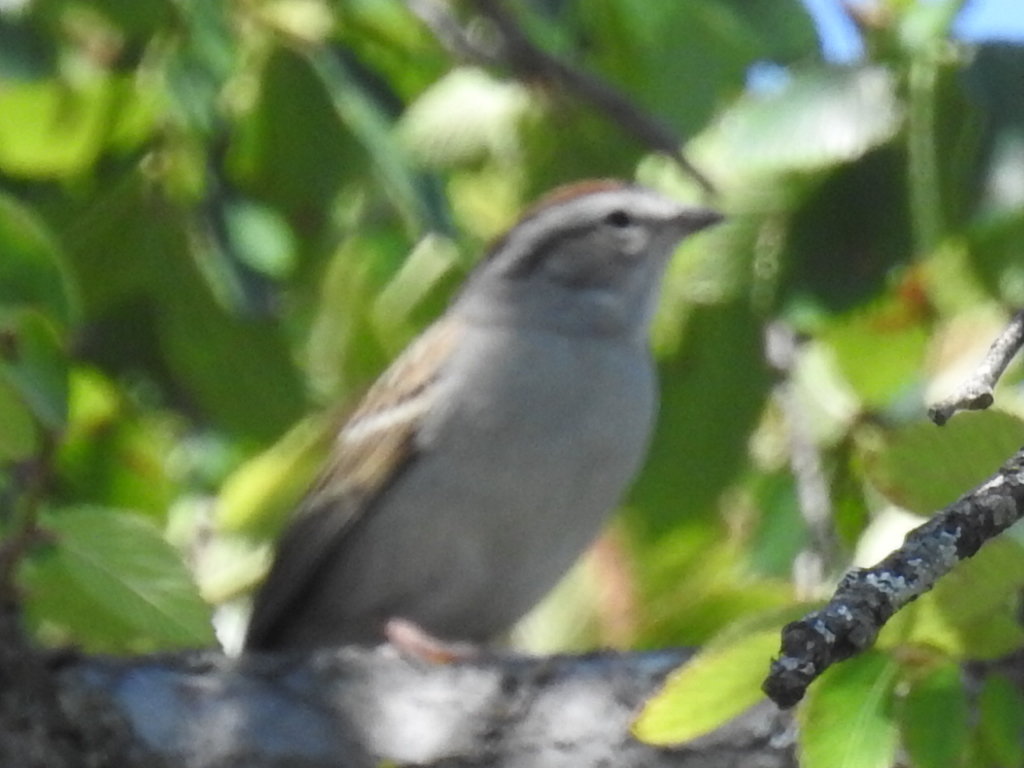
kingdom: Animalia
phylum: Chordata
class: Aves
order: Passeriformes
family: Passerellidae
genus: Spizella
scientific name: Spizella passerina
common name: Chipping sparrow
